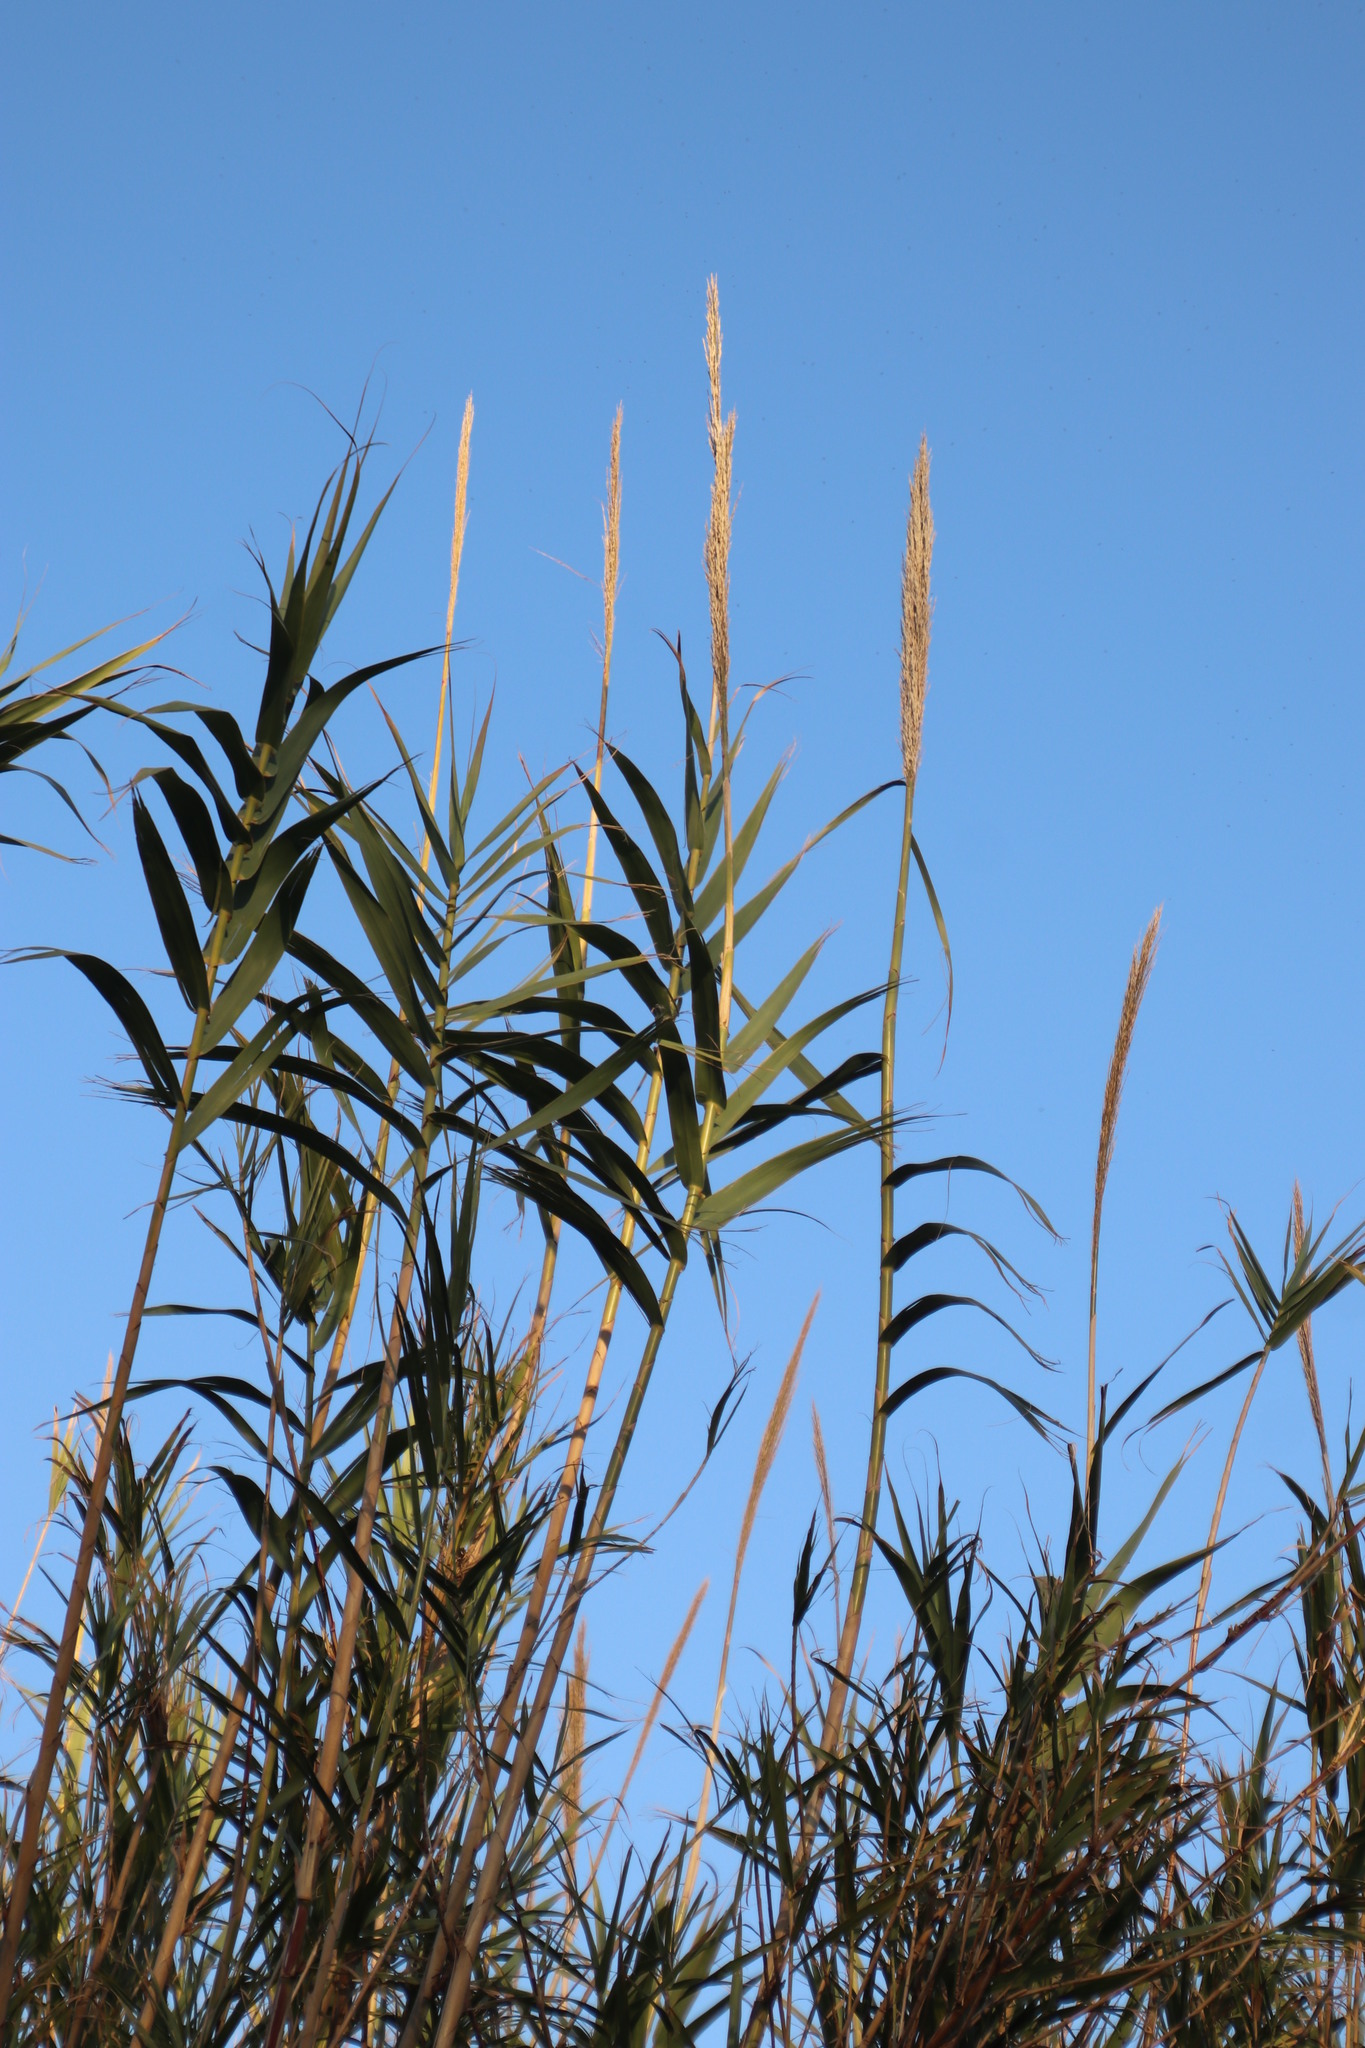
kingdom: Plantae
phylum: Tracheophyta
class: Liliopsida
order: Poales
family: Poaceae
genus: Arundo
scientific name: Arundo donax
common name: Giant reed
